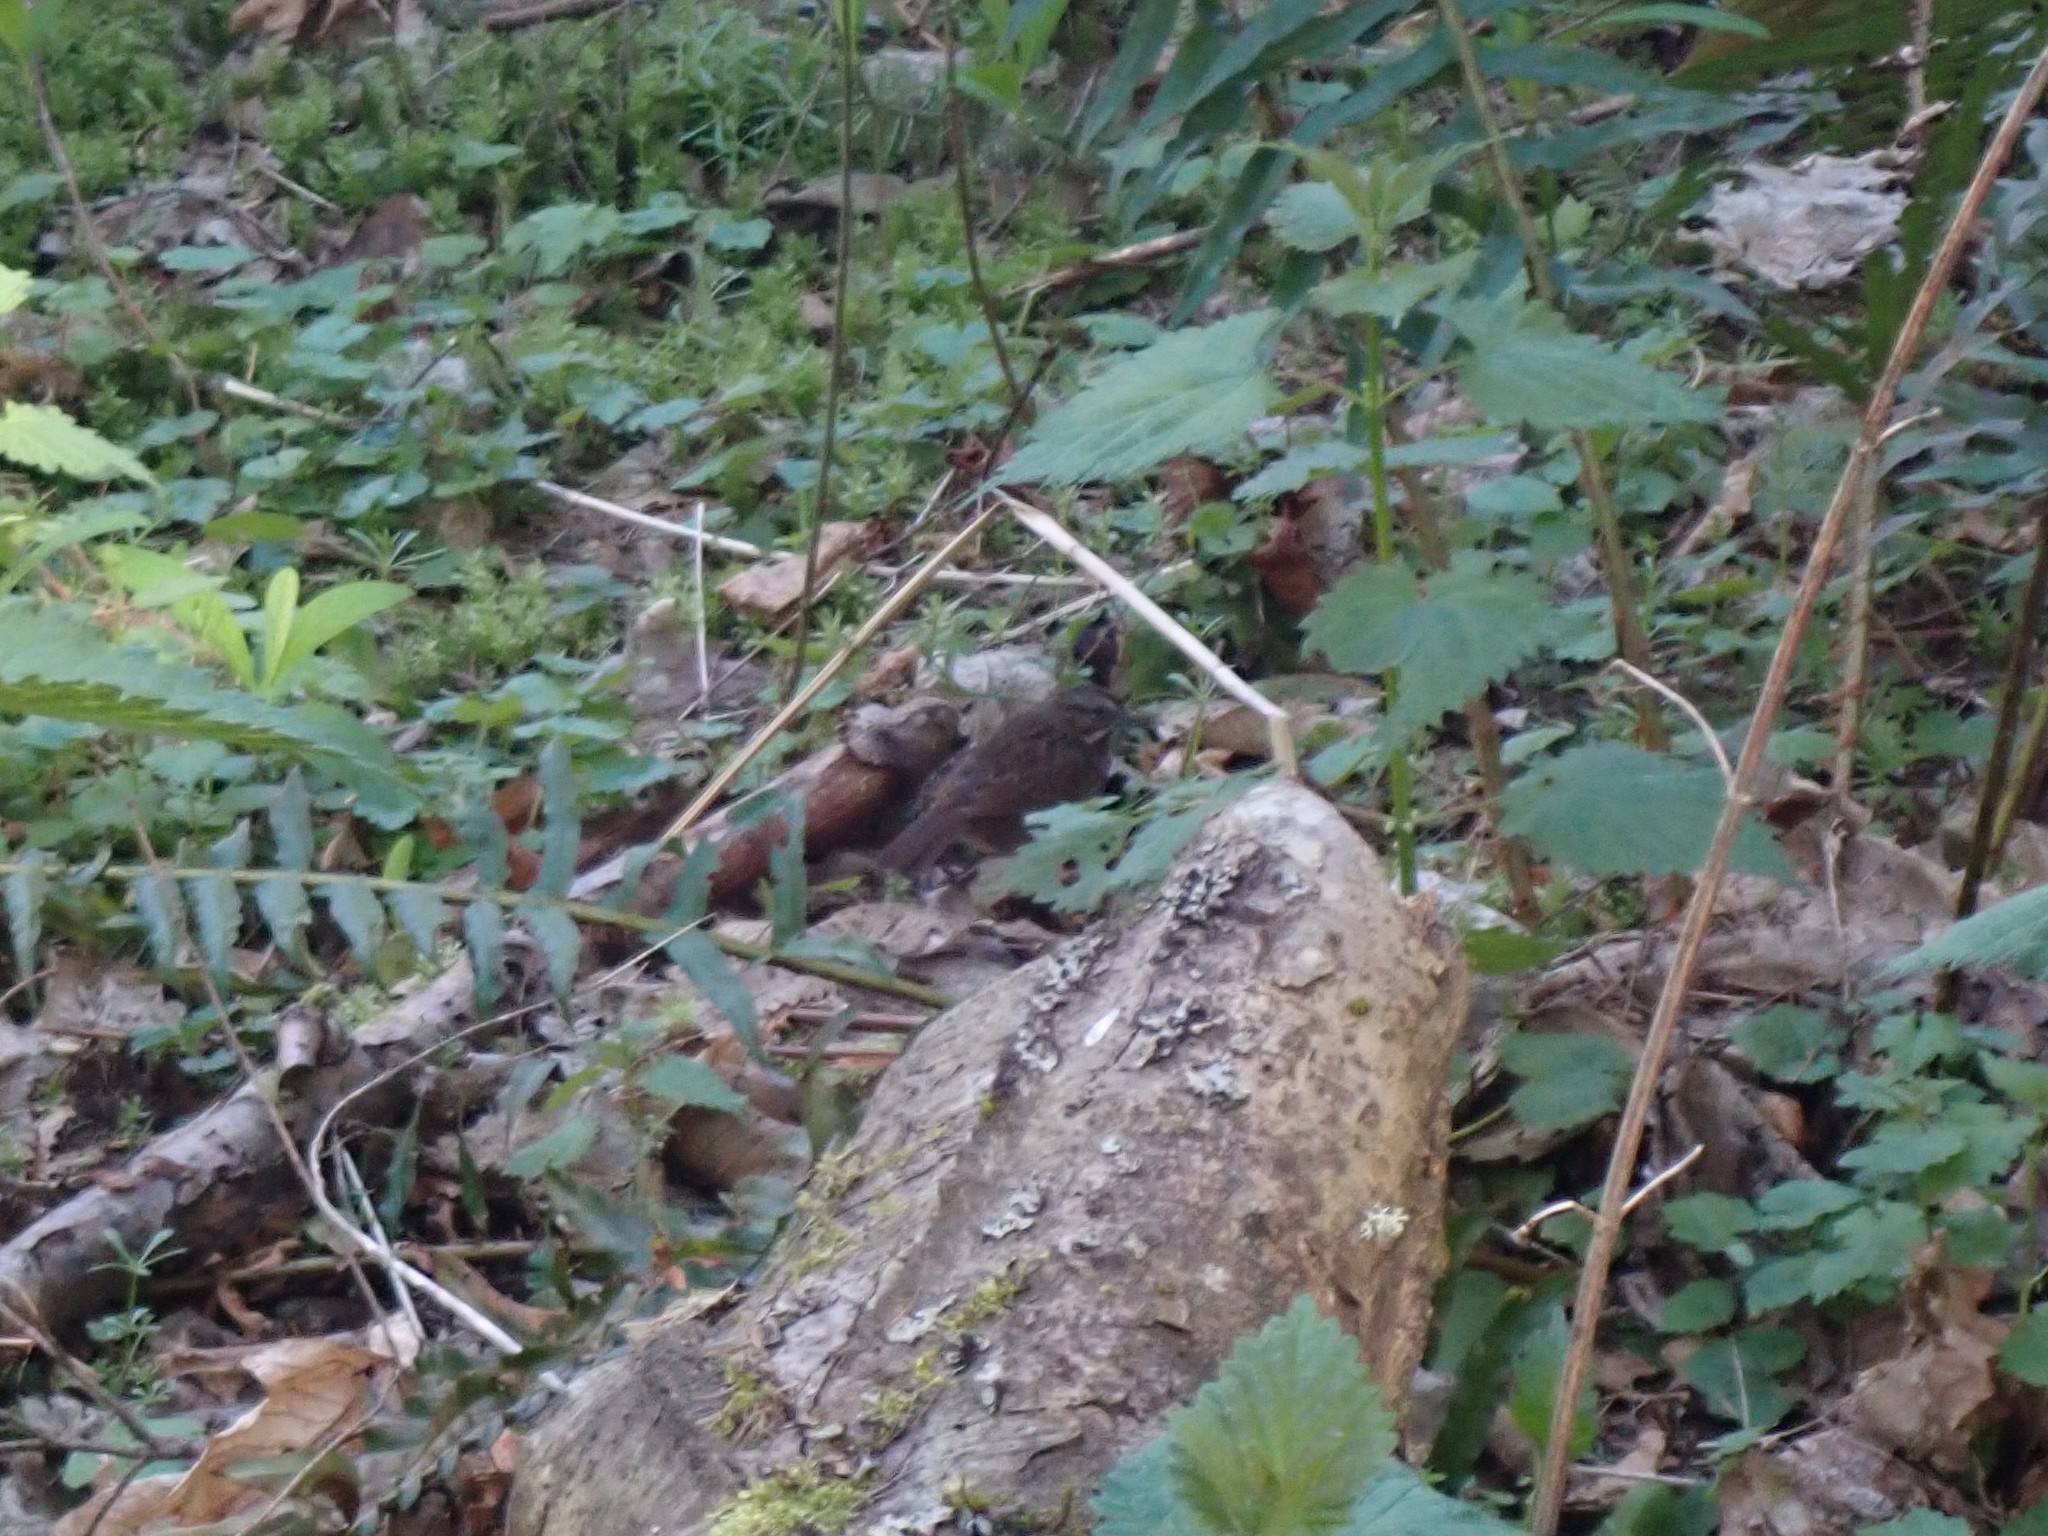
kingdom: Animalia
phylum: Chordata
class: Aves
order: Passeriformes
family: Passerellidae
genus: Melospiza
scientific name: Melospiza melodia
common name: Song sparrow
